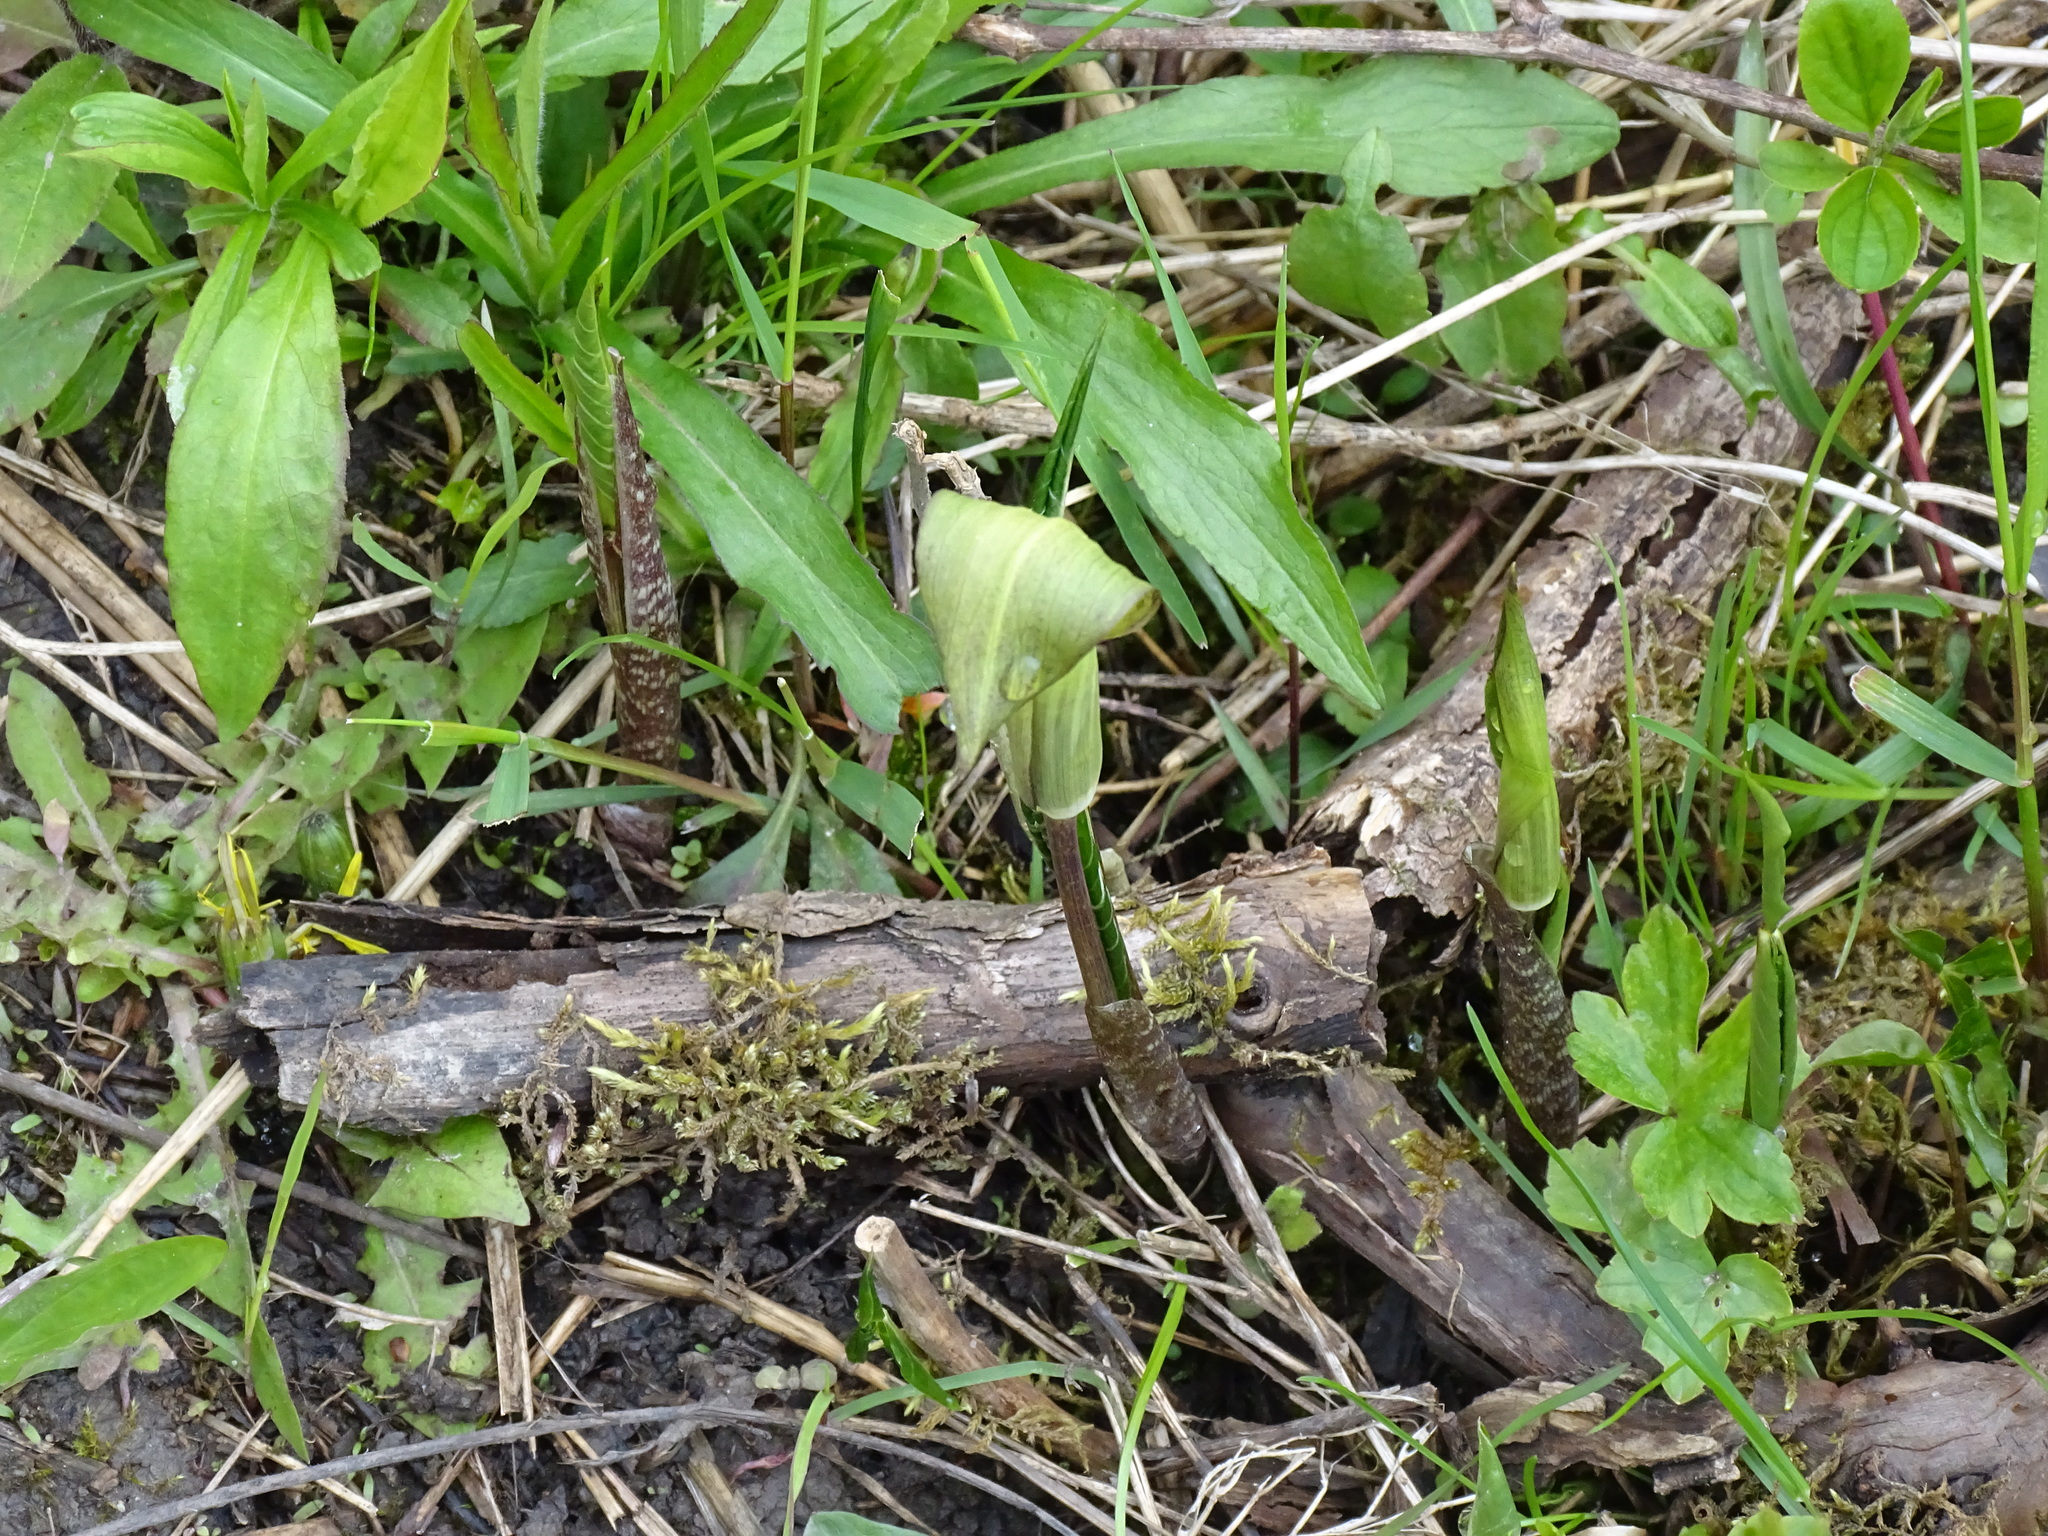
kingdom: Plantae
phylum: Tracheophyta
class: Liliopsida
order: Alismatales
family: Araceae
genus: Arisaema
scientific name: Arisaema triphyllum
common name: Jack-in-the-pulpit
